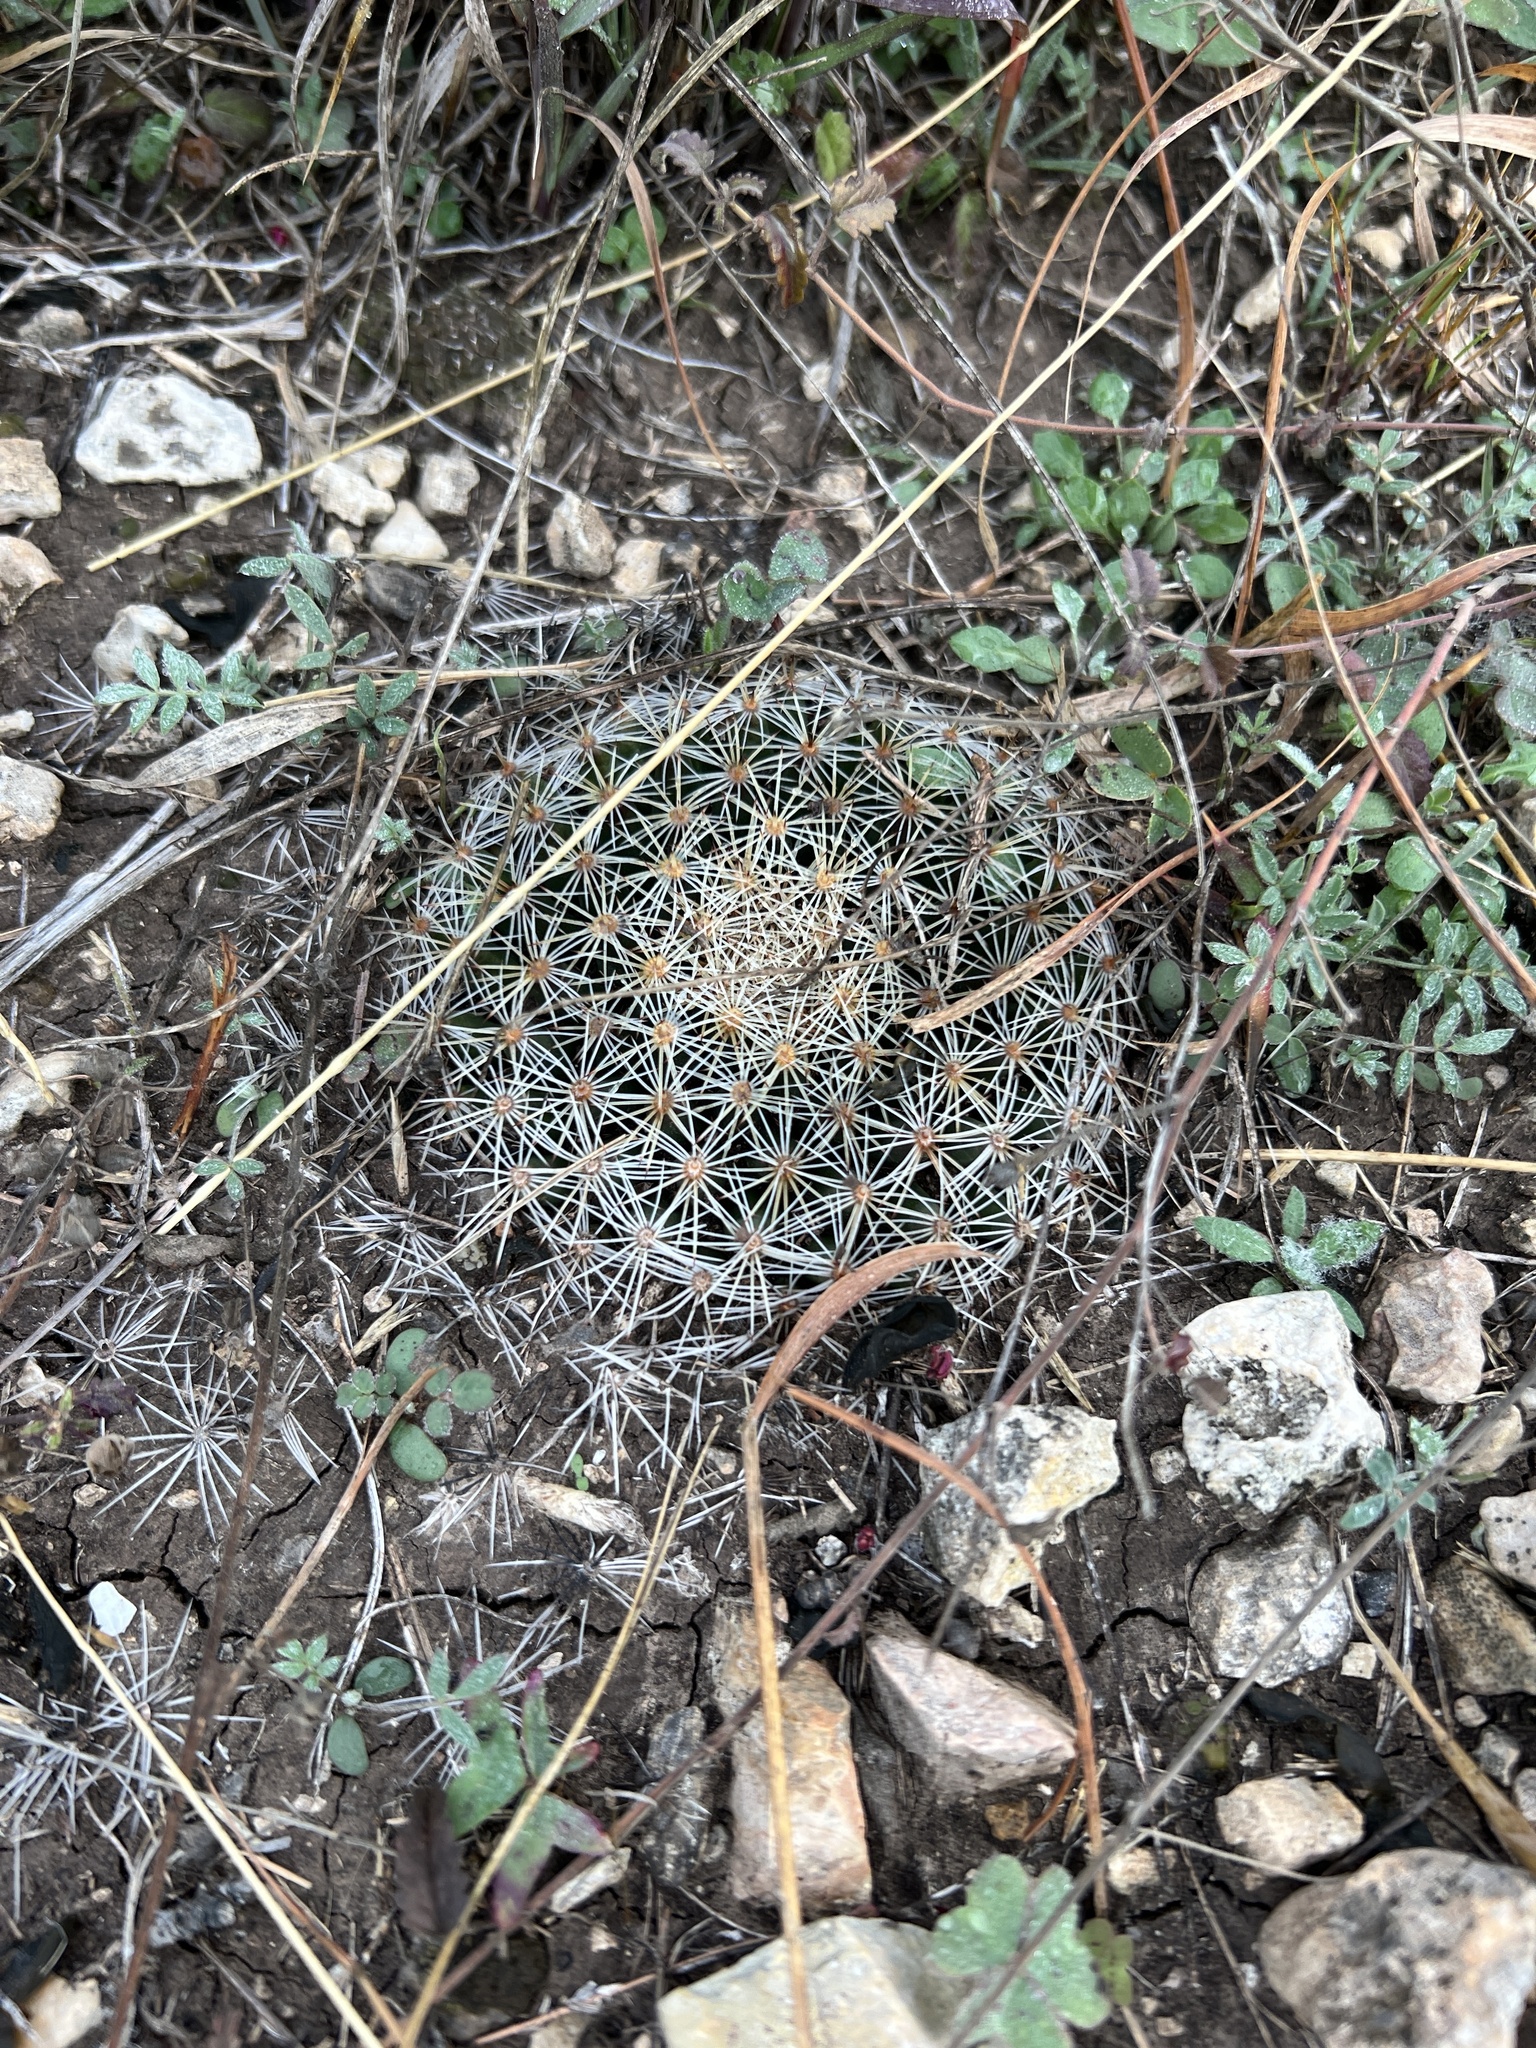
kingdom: Plantae
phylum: Tracheophyta
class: Magnoliopsida
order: Caryophyllales
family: Cactaceae
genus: Mammillaria
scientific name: Mammillaria heyderi
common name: Little nipple cactus
